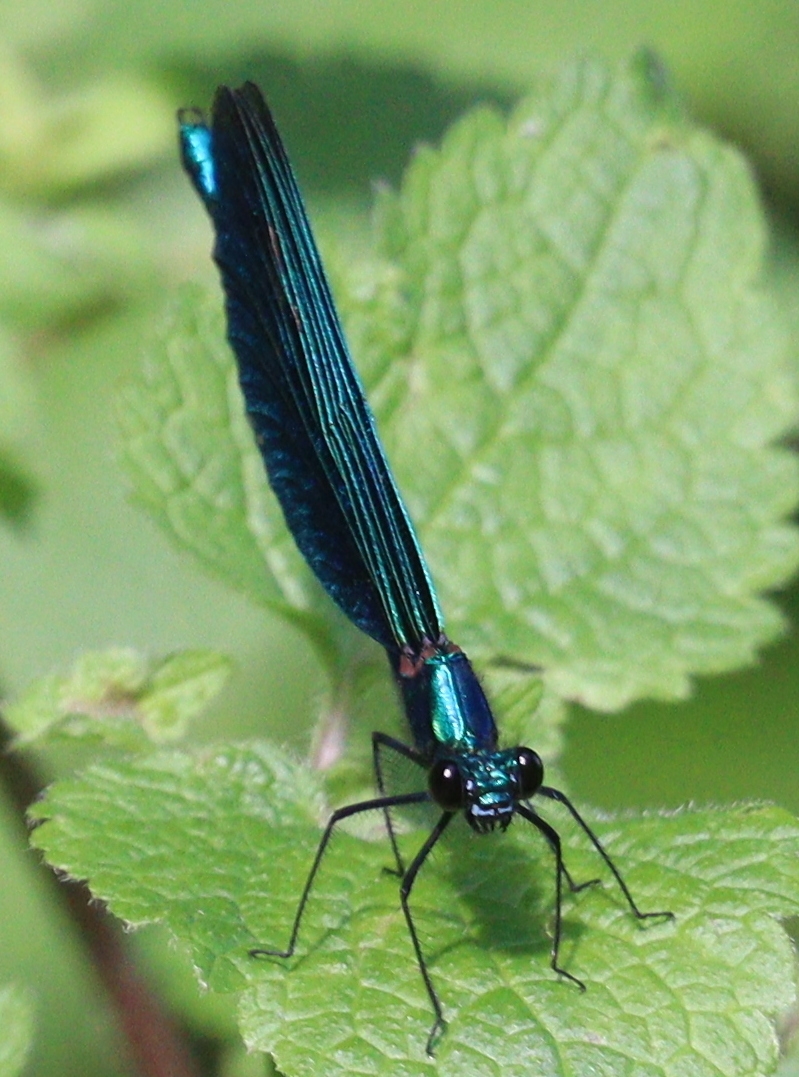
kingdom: Animalia
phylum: Arthropoda
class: Insecta
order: Odonata
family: Calopterygidae
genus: Calopteryx
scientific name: Calopteryx virgo
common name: Beautiful demoiselle
